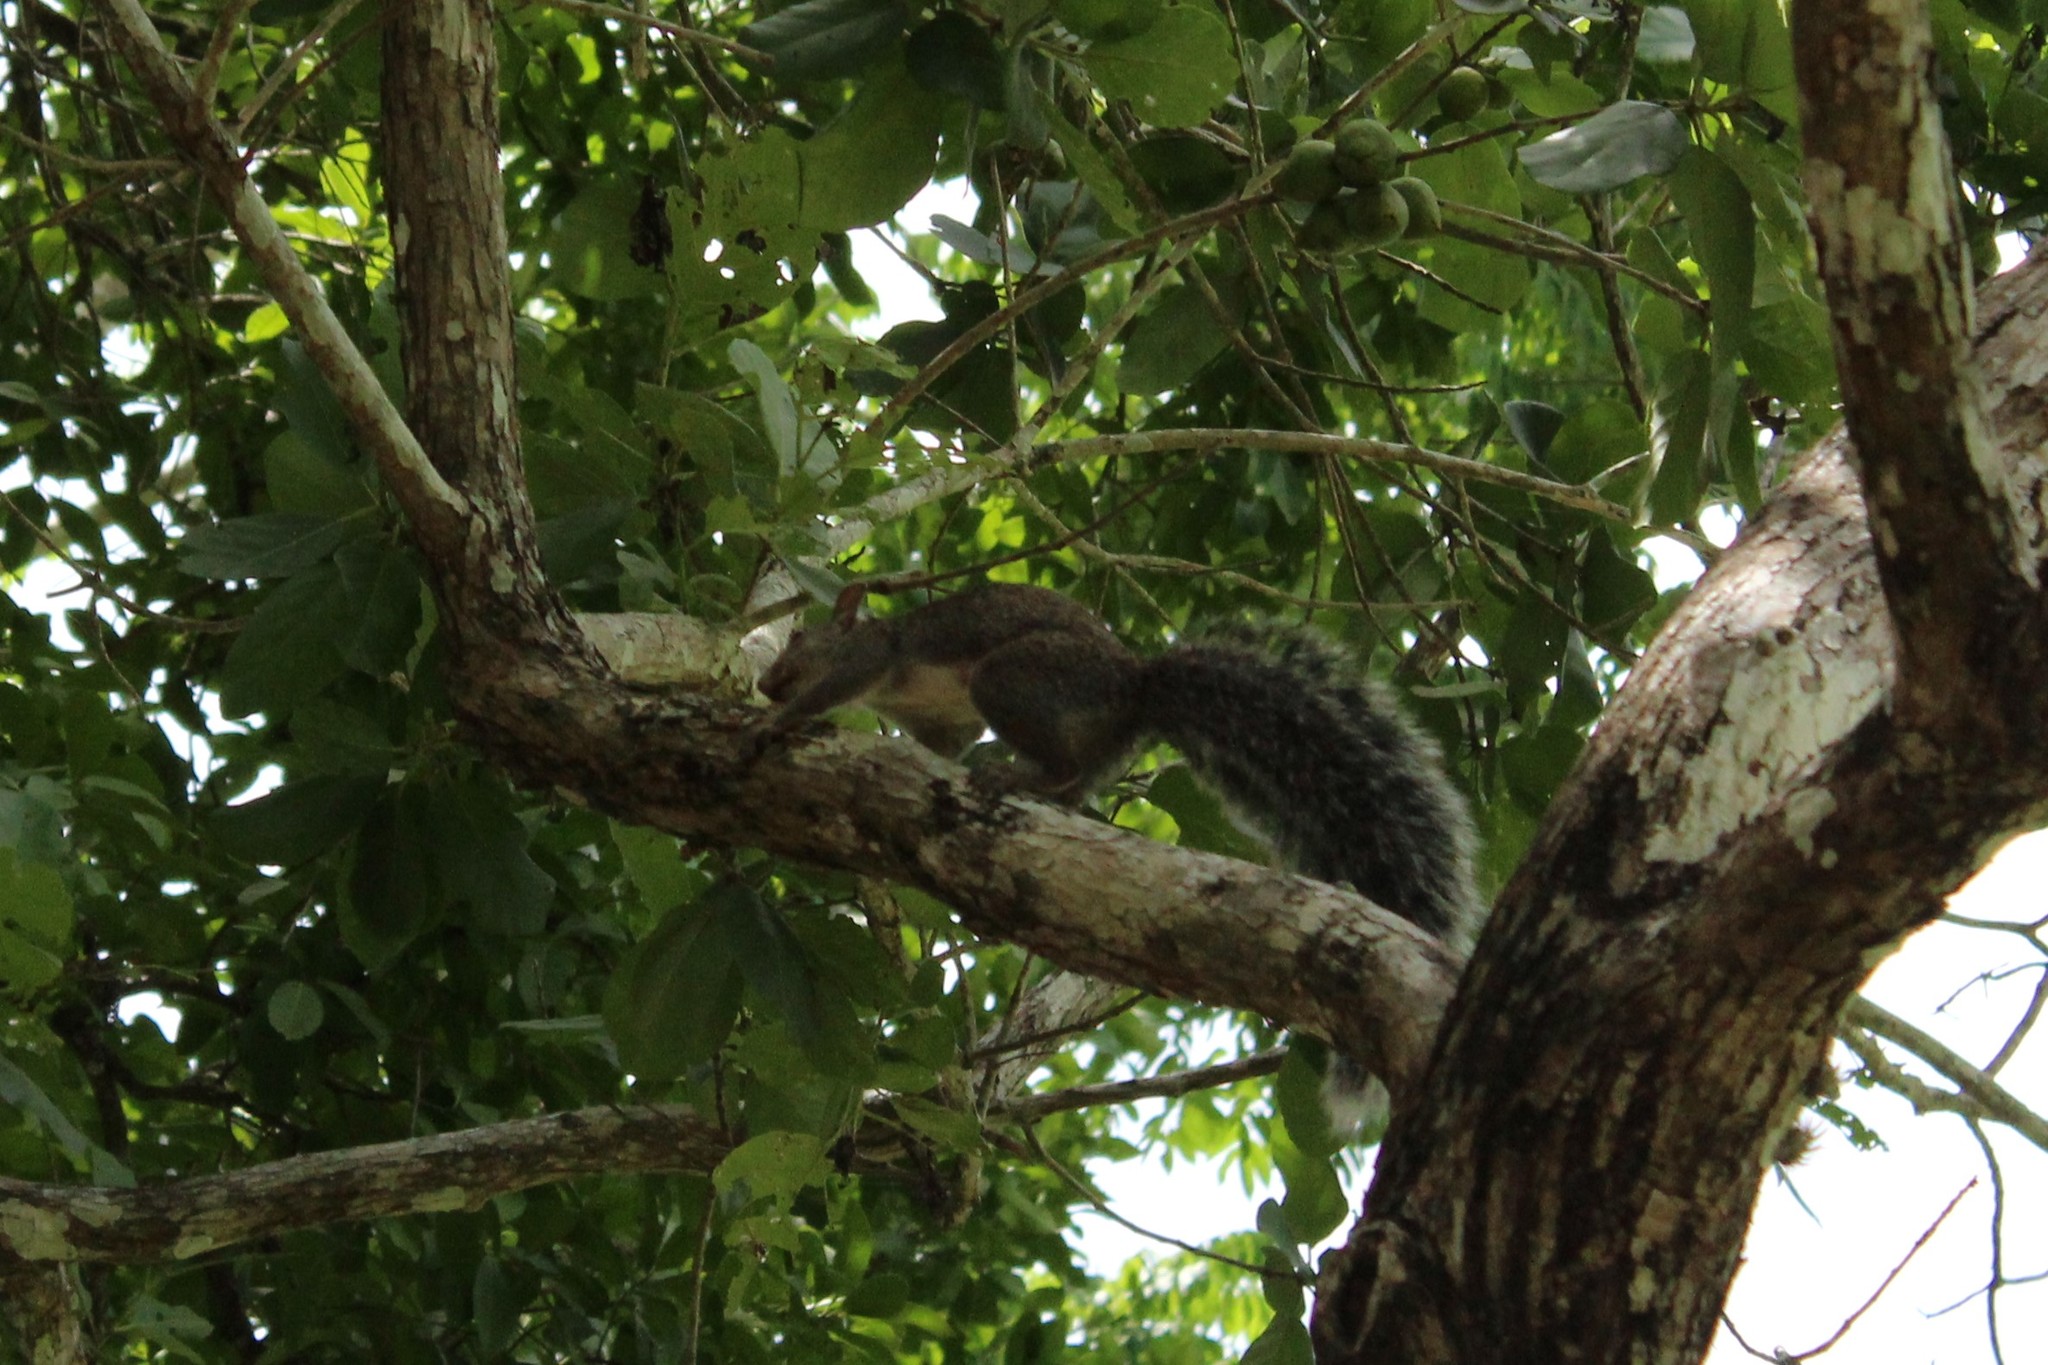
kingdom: Animalia
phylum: Chordata
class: Mammalia
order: Rodentia
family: Sciuridae
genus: Sciurus
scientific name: Sciurus yucatanensis
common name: Yucatan squirrel
